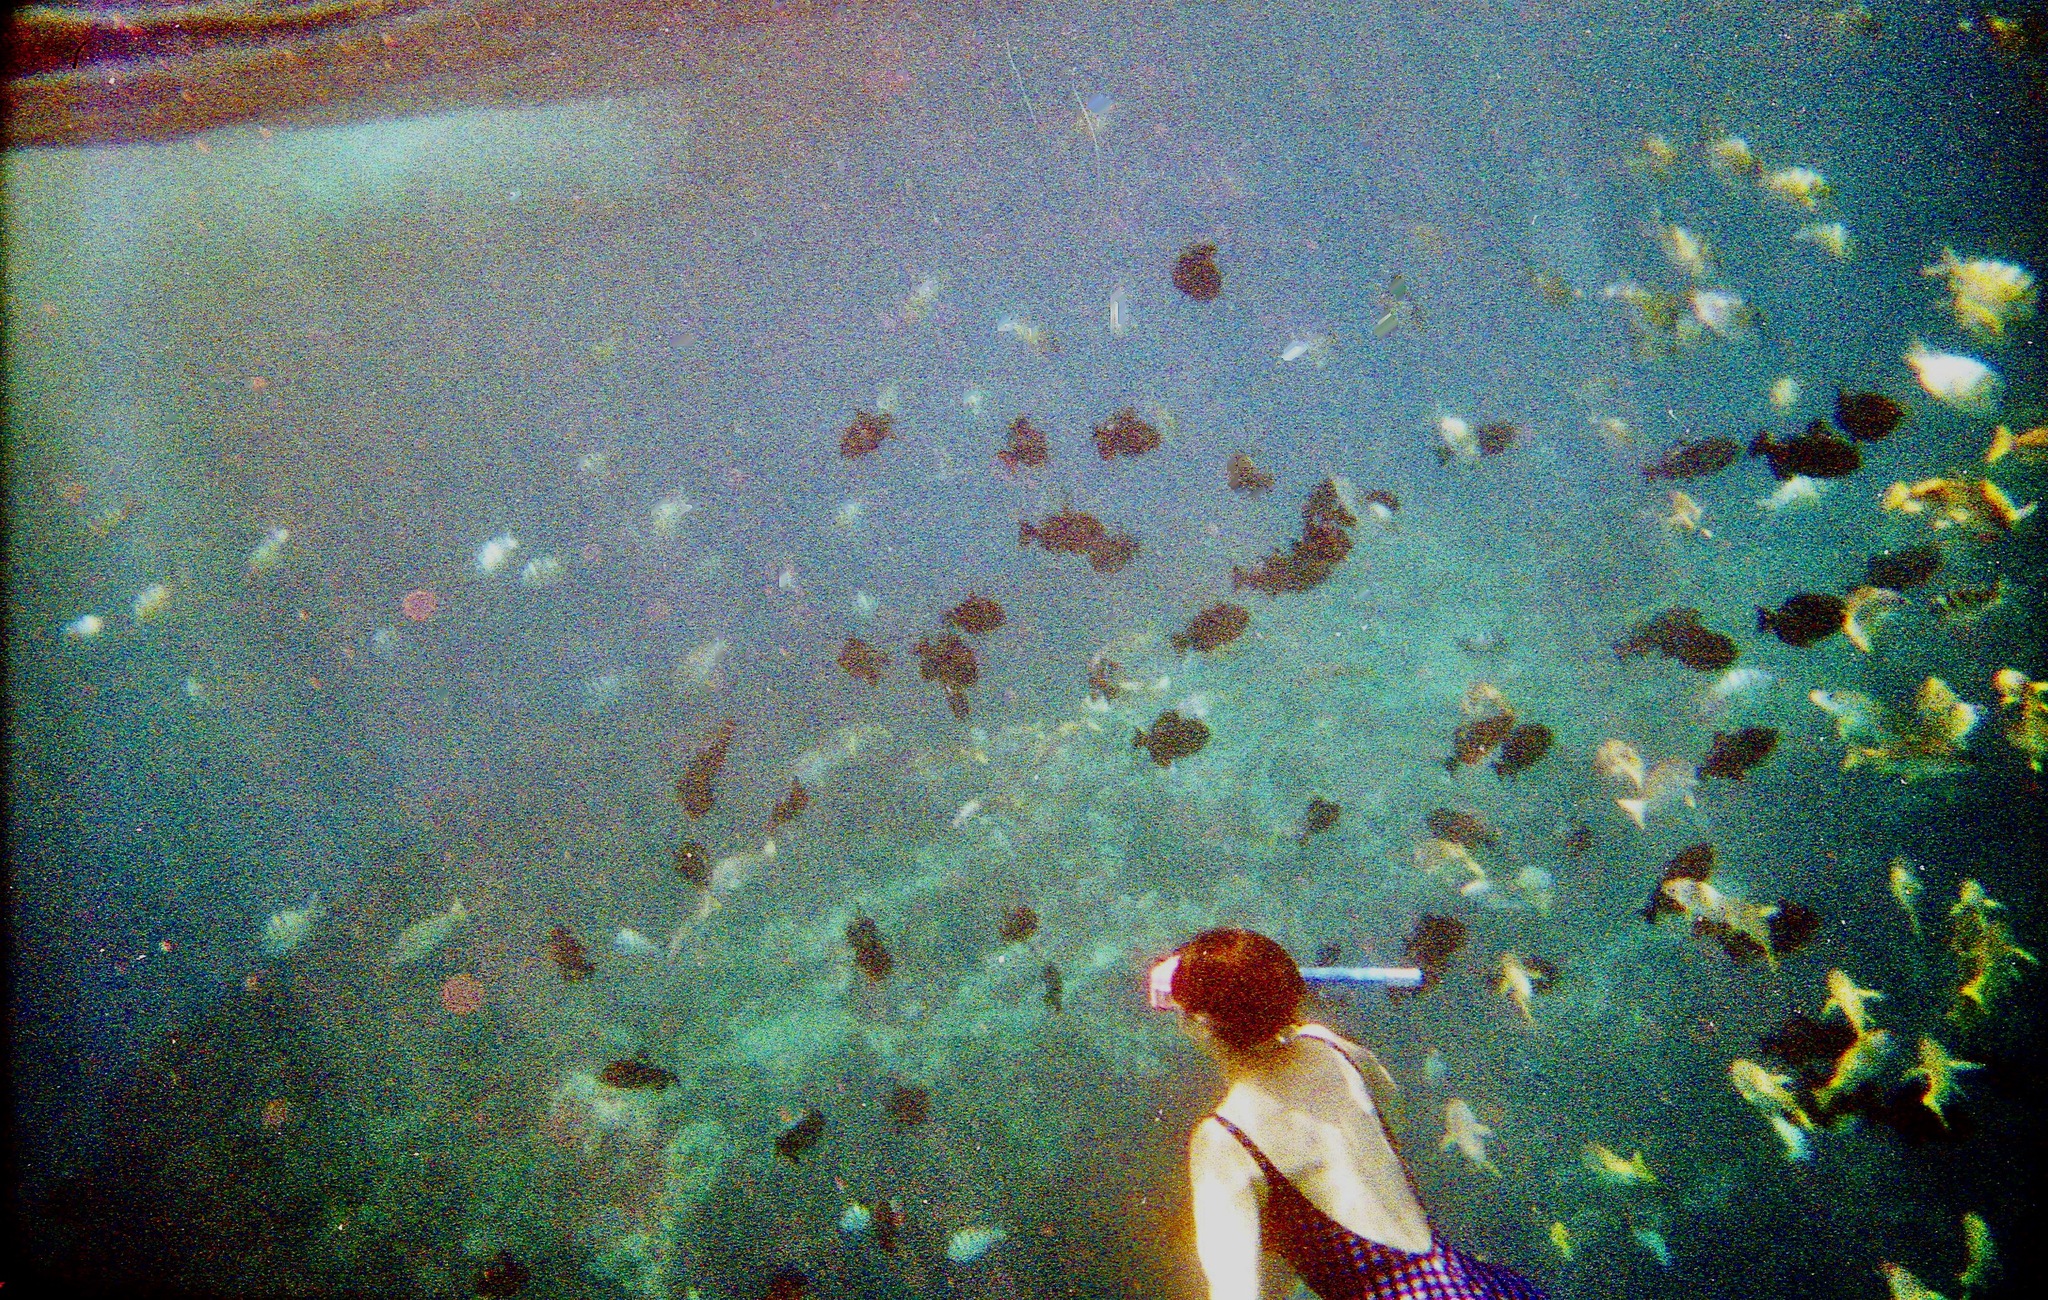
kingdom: Animalia
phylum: Chordata
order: Perciformes
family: Lutjanidae
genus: Lutjanus
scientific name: Lutjanus kasmira
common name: Common bluestripe snapper
